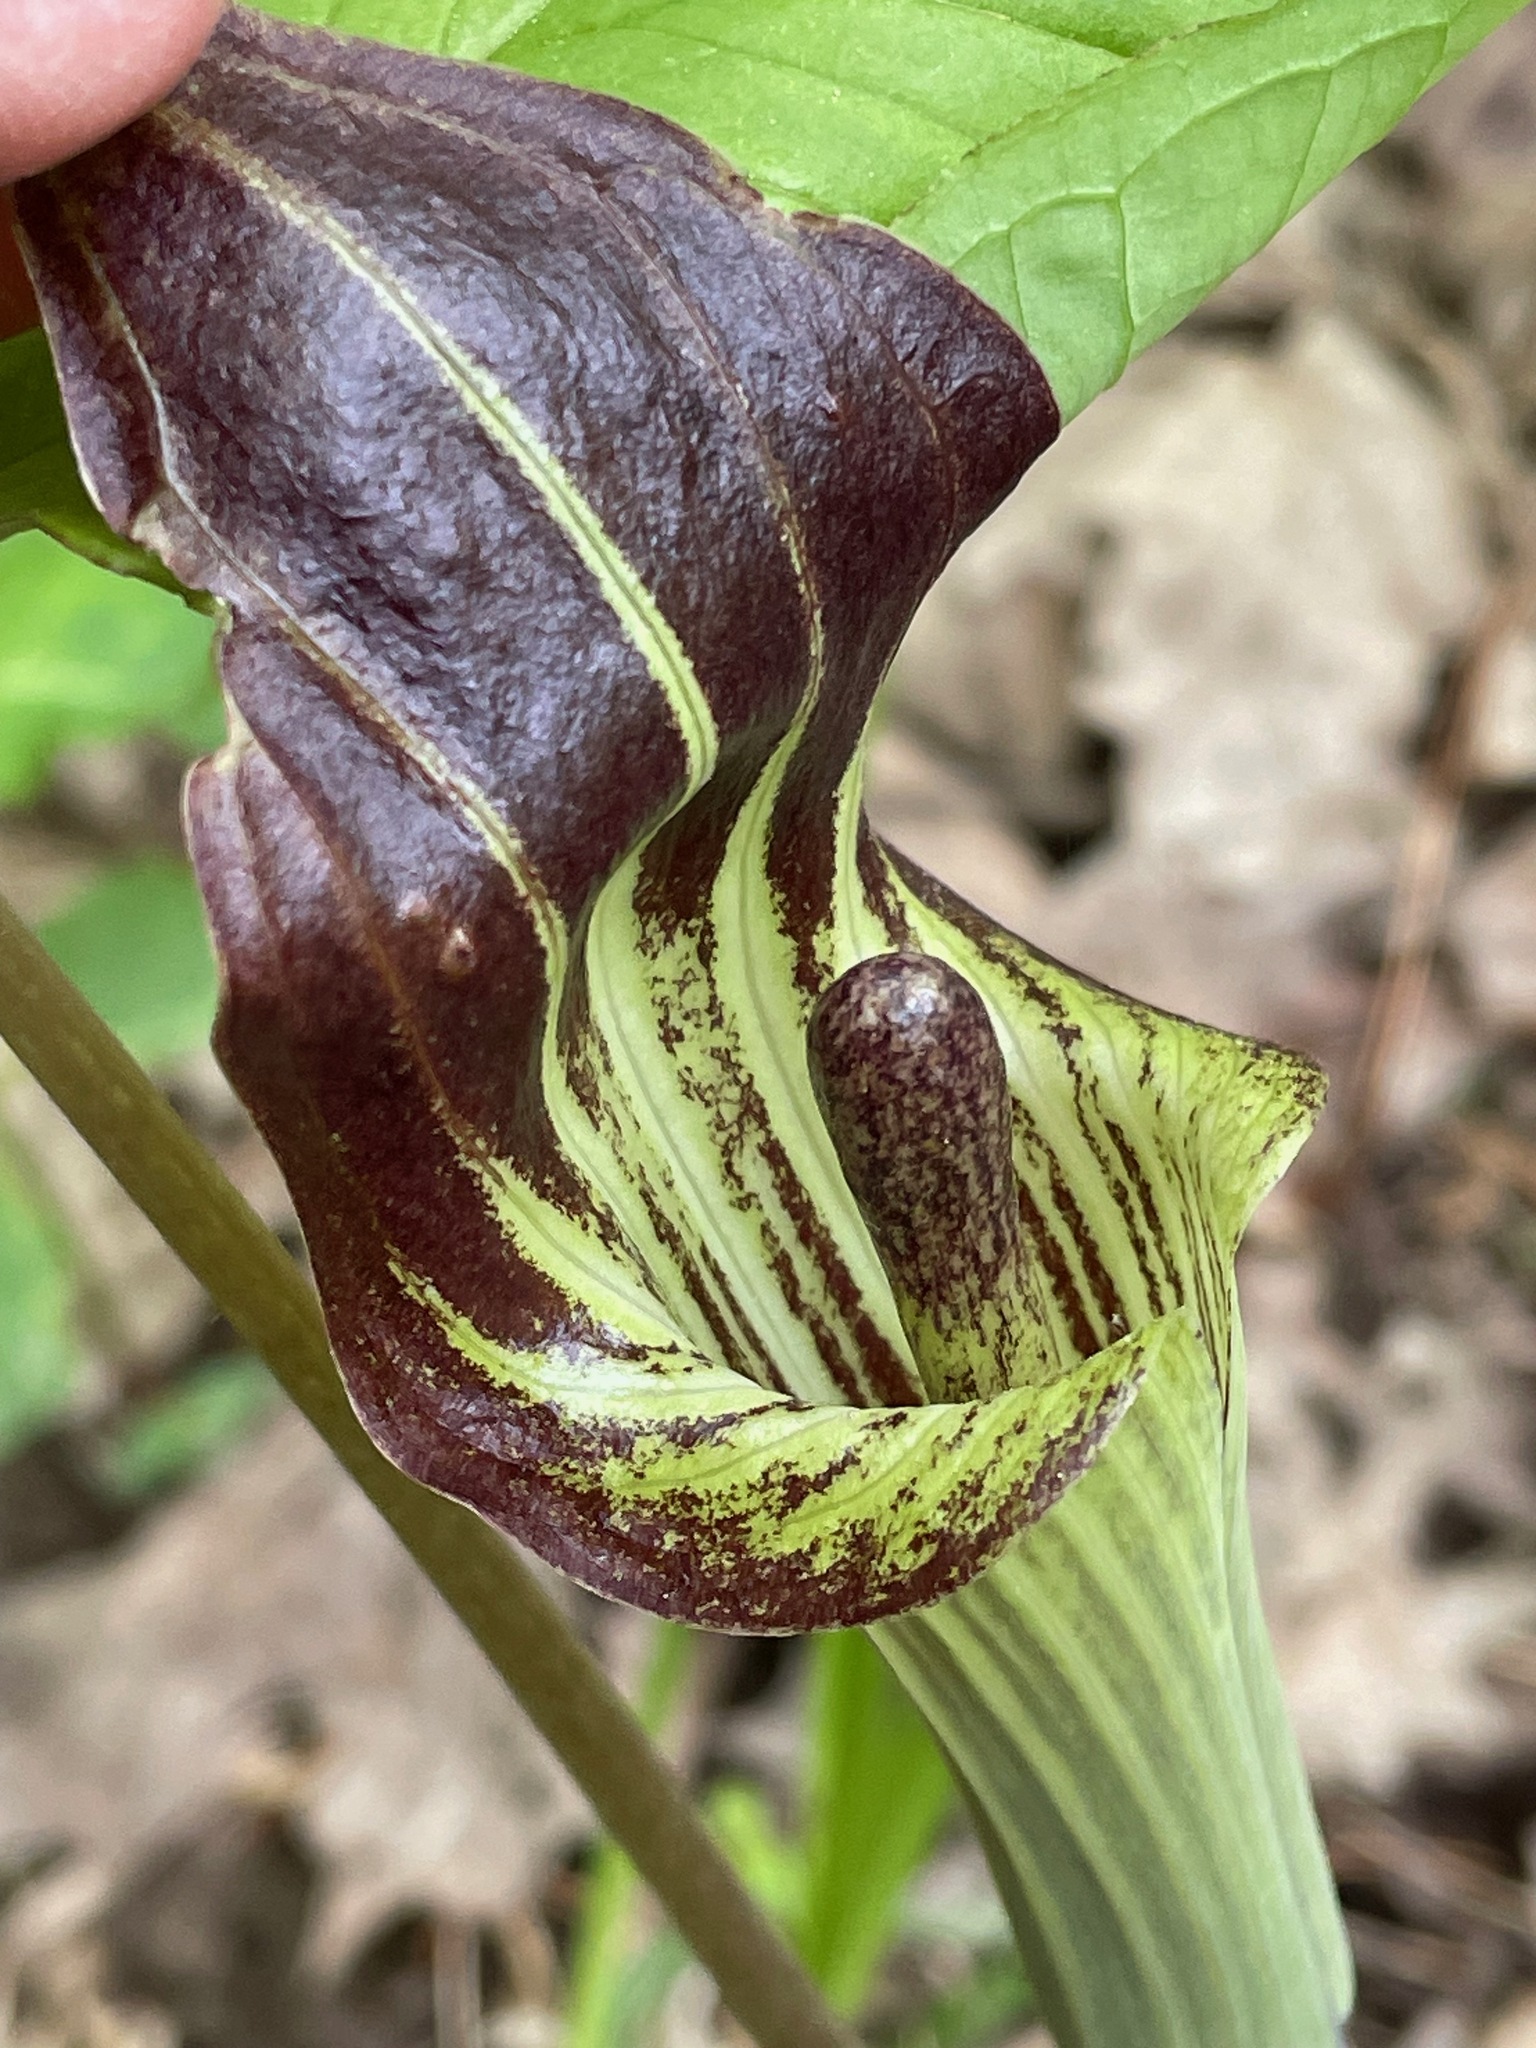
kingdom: Plantae
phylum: Tracheophyta
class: Liliopsida
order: Alismatales
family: Araceae
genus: Arisaema
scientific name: Arisaema triphyllum
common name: Jack-in-the-pulpit
